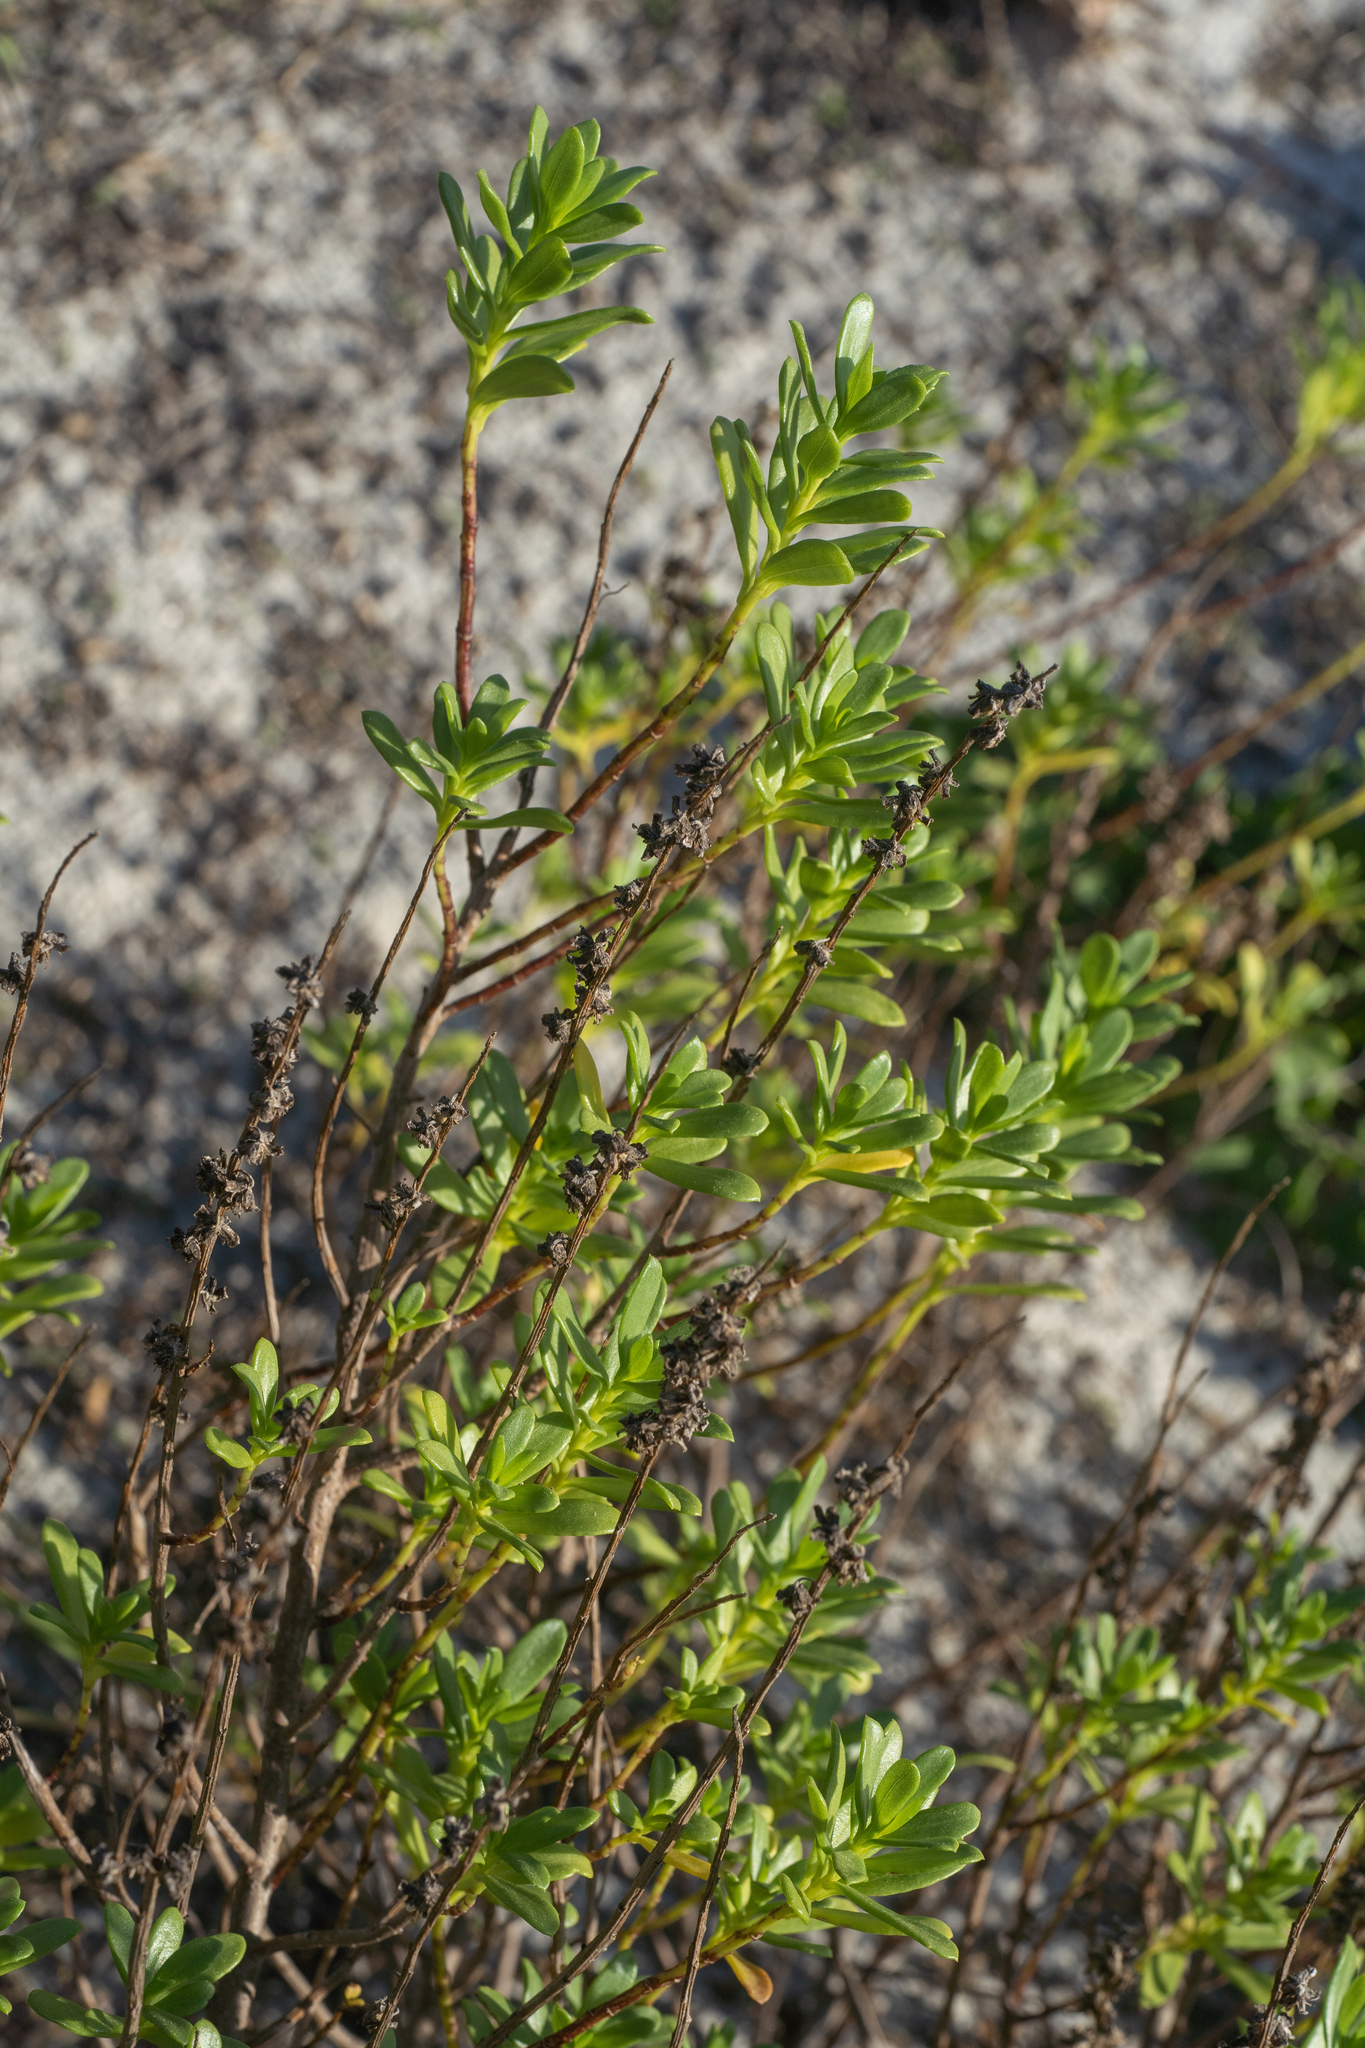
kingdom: Plantae
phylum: Tracheophyta
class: Magnoliopsida
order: Asterales
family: Asteraceae
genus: Iva
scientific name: Iva imbricata
